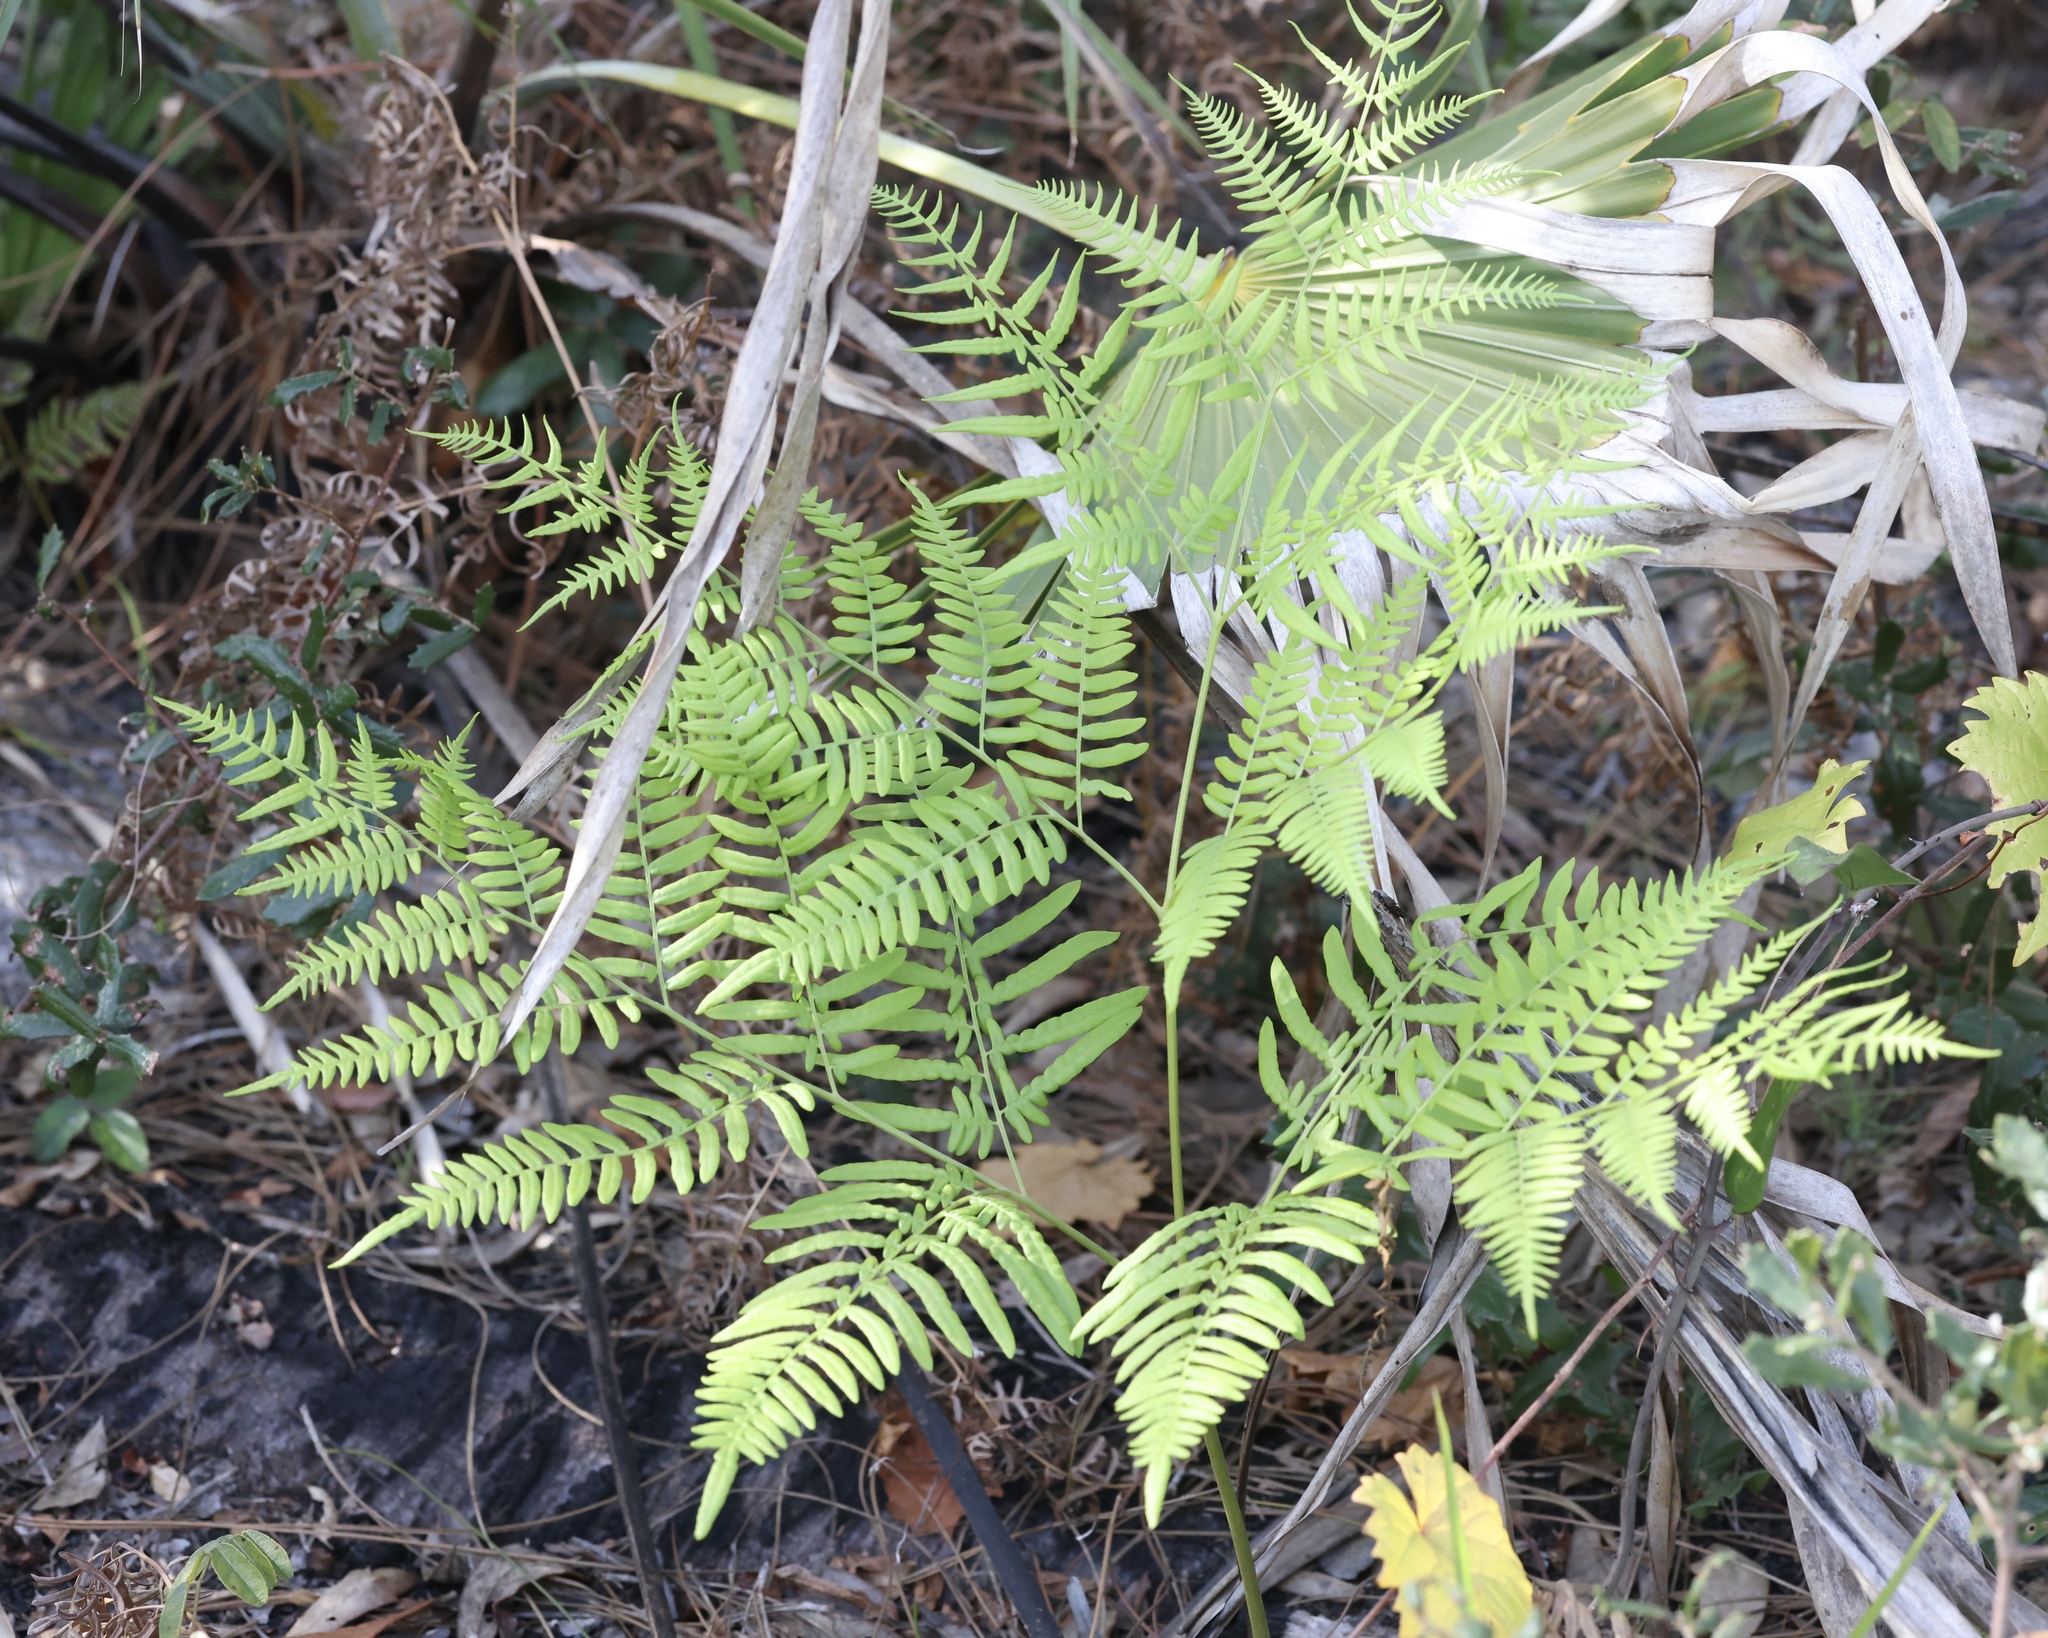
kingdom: Plantae
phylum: Tracheophyta
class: Polypodiopsida
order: Polypodiales
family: Dennstaedtiaceae
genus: Pteridium
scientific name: Pteridium
